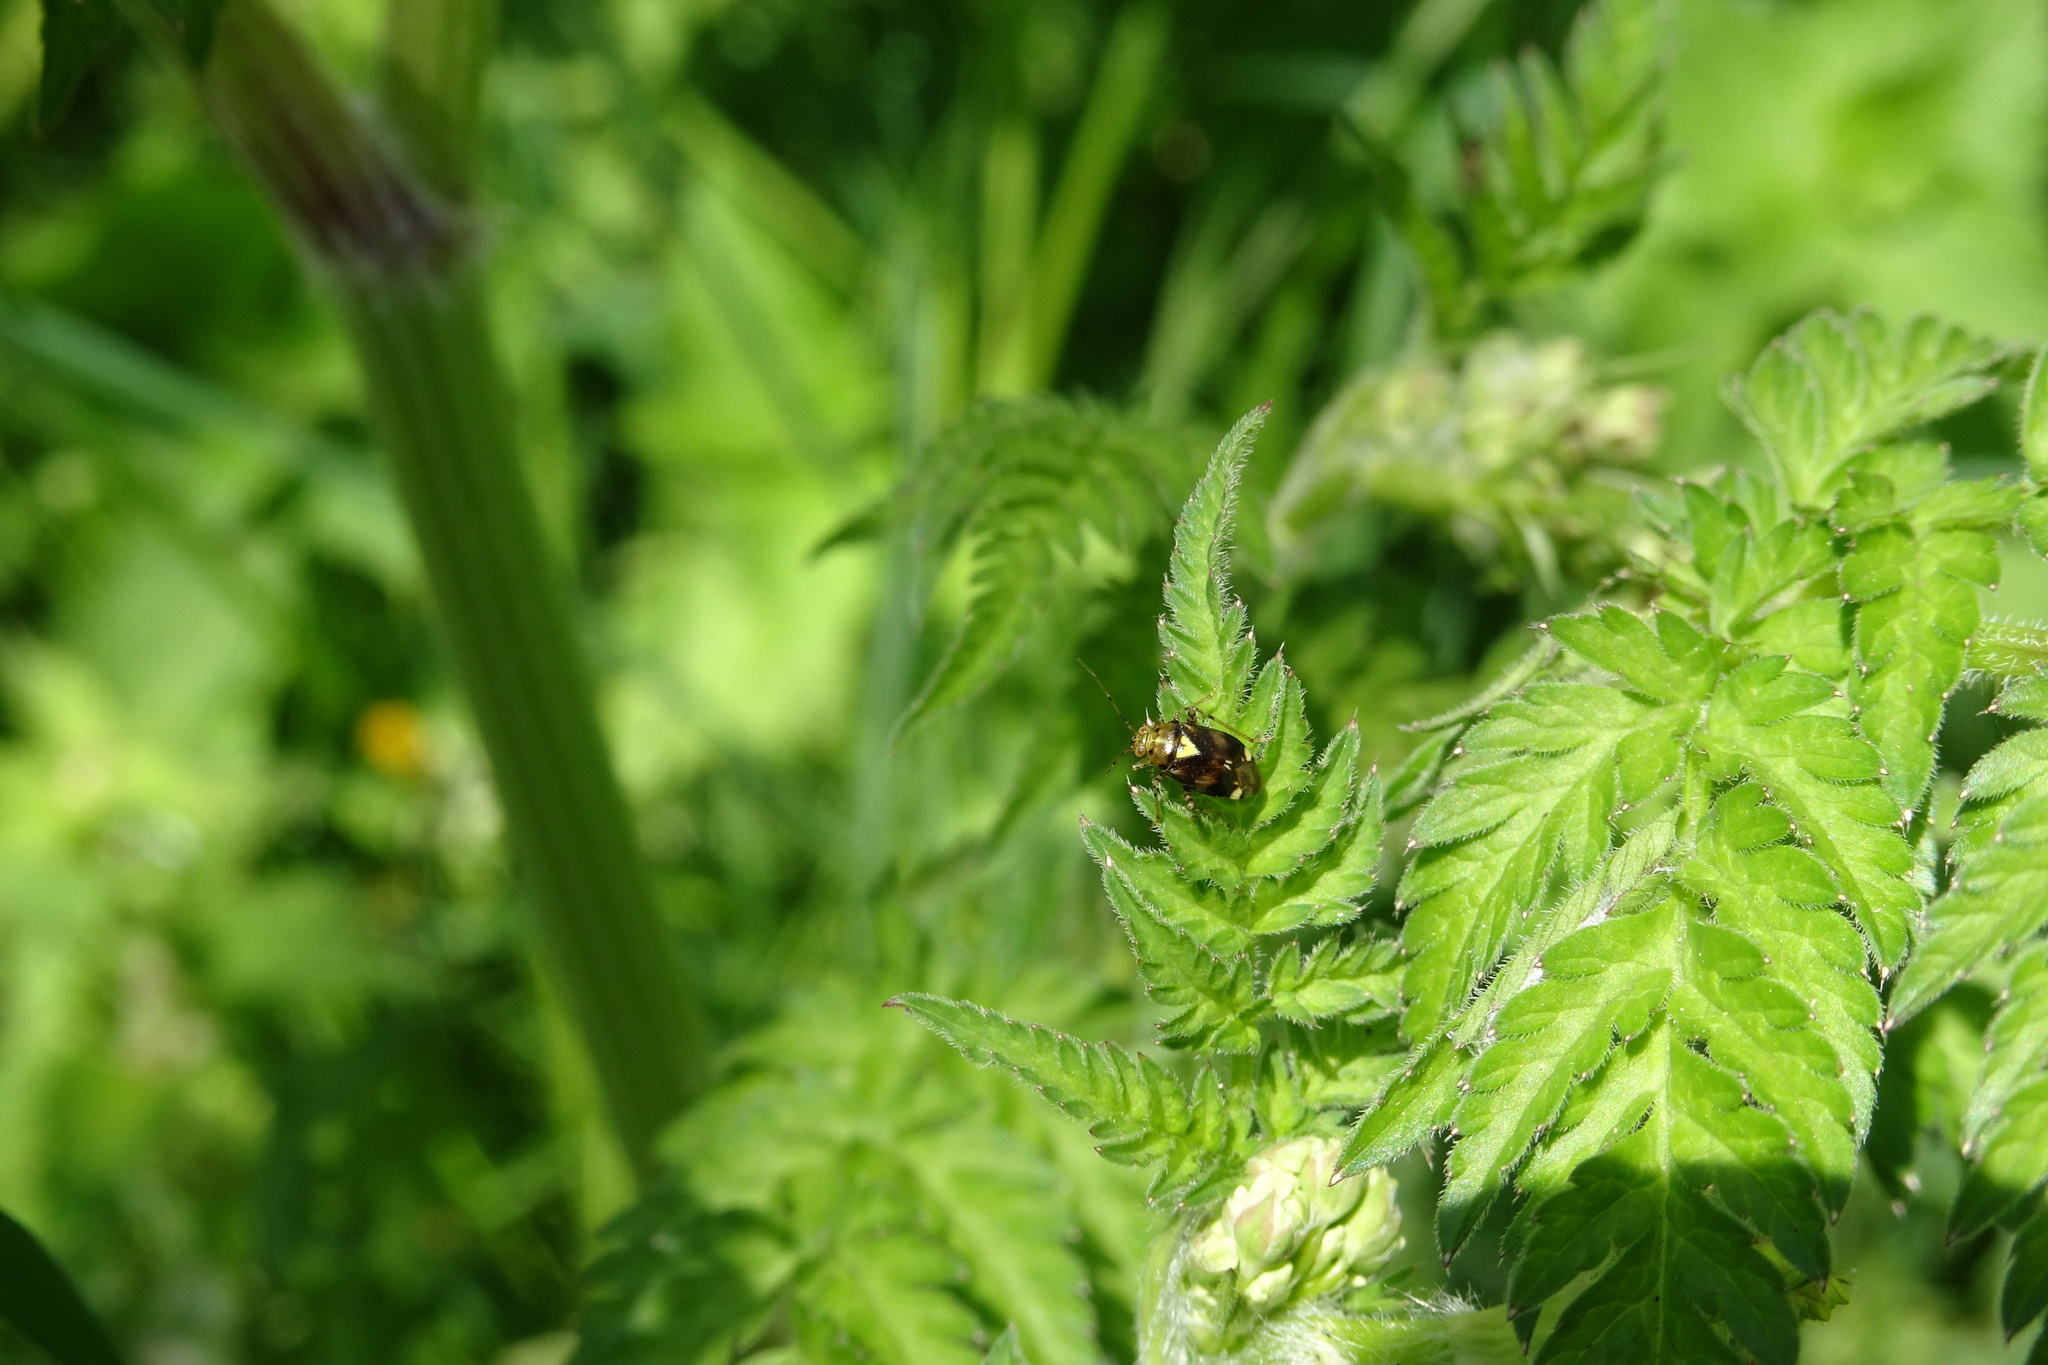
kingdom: Animalia
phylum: Arthropoda
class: Insecta
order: Hemiptera
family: Miridae
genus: Liocoris
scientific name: Liocoris tripustulatus
